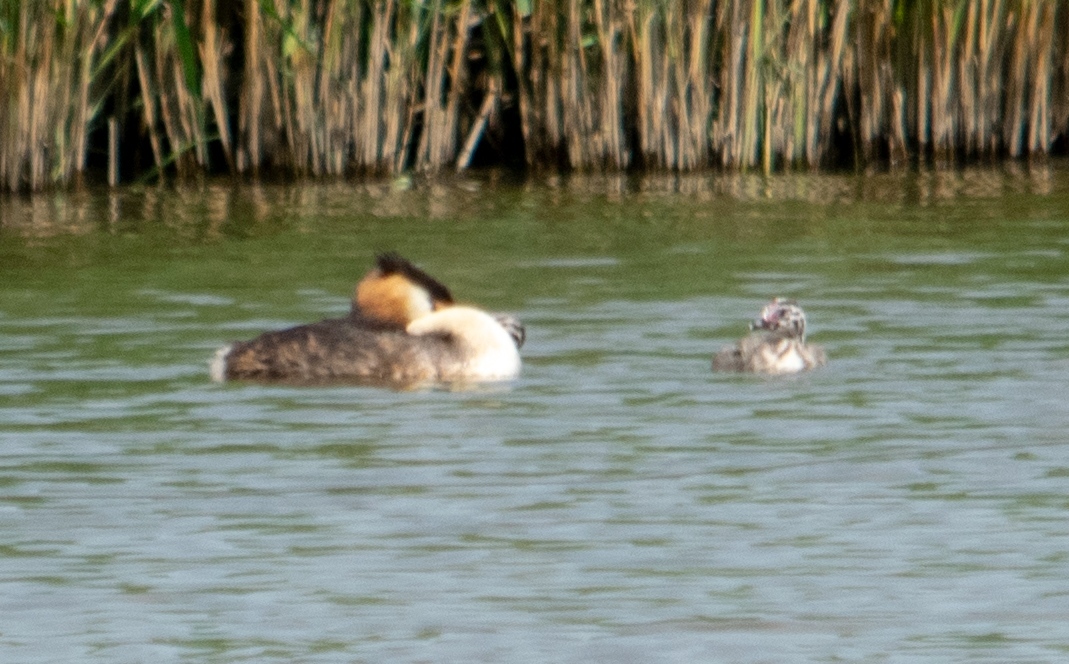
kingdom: Animalia
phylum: Chordata
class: Aves
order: Podicipediformes
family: Podicipedidae
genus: Podiceps
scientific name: Podiceps cristatus
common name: Great crested grebe
